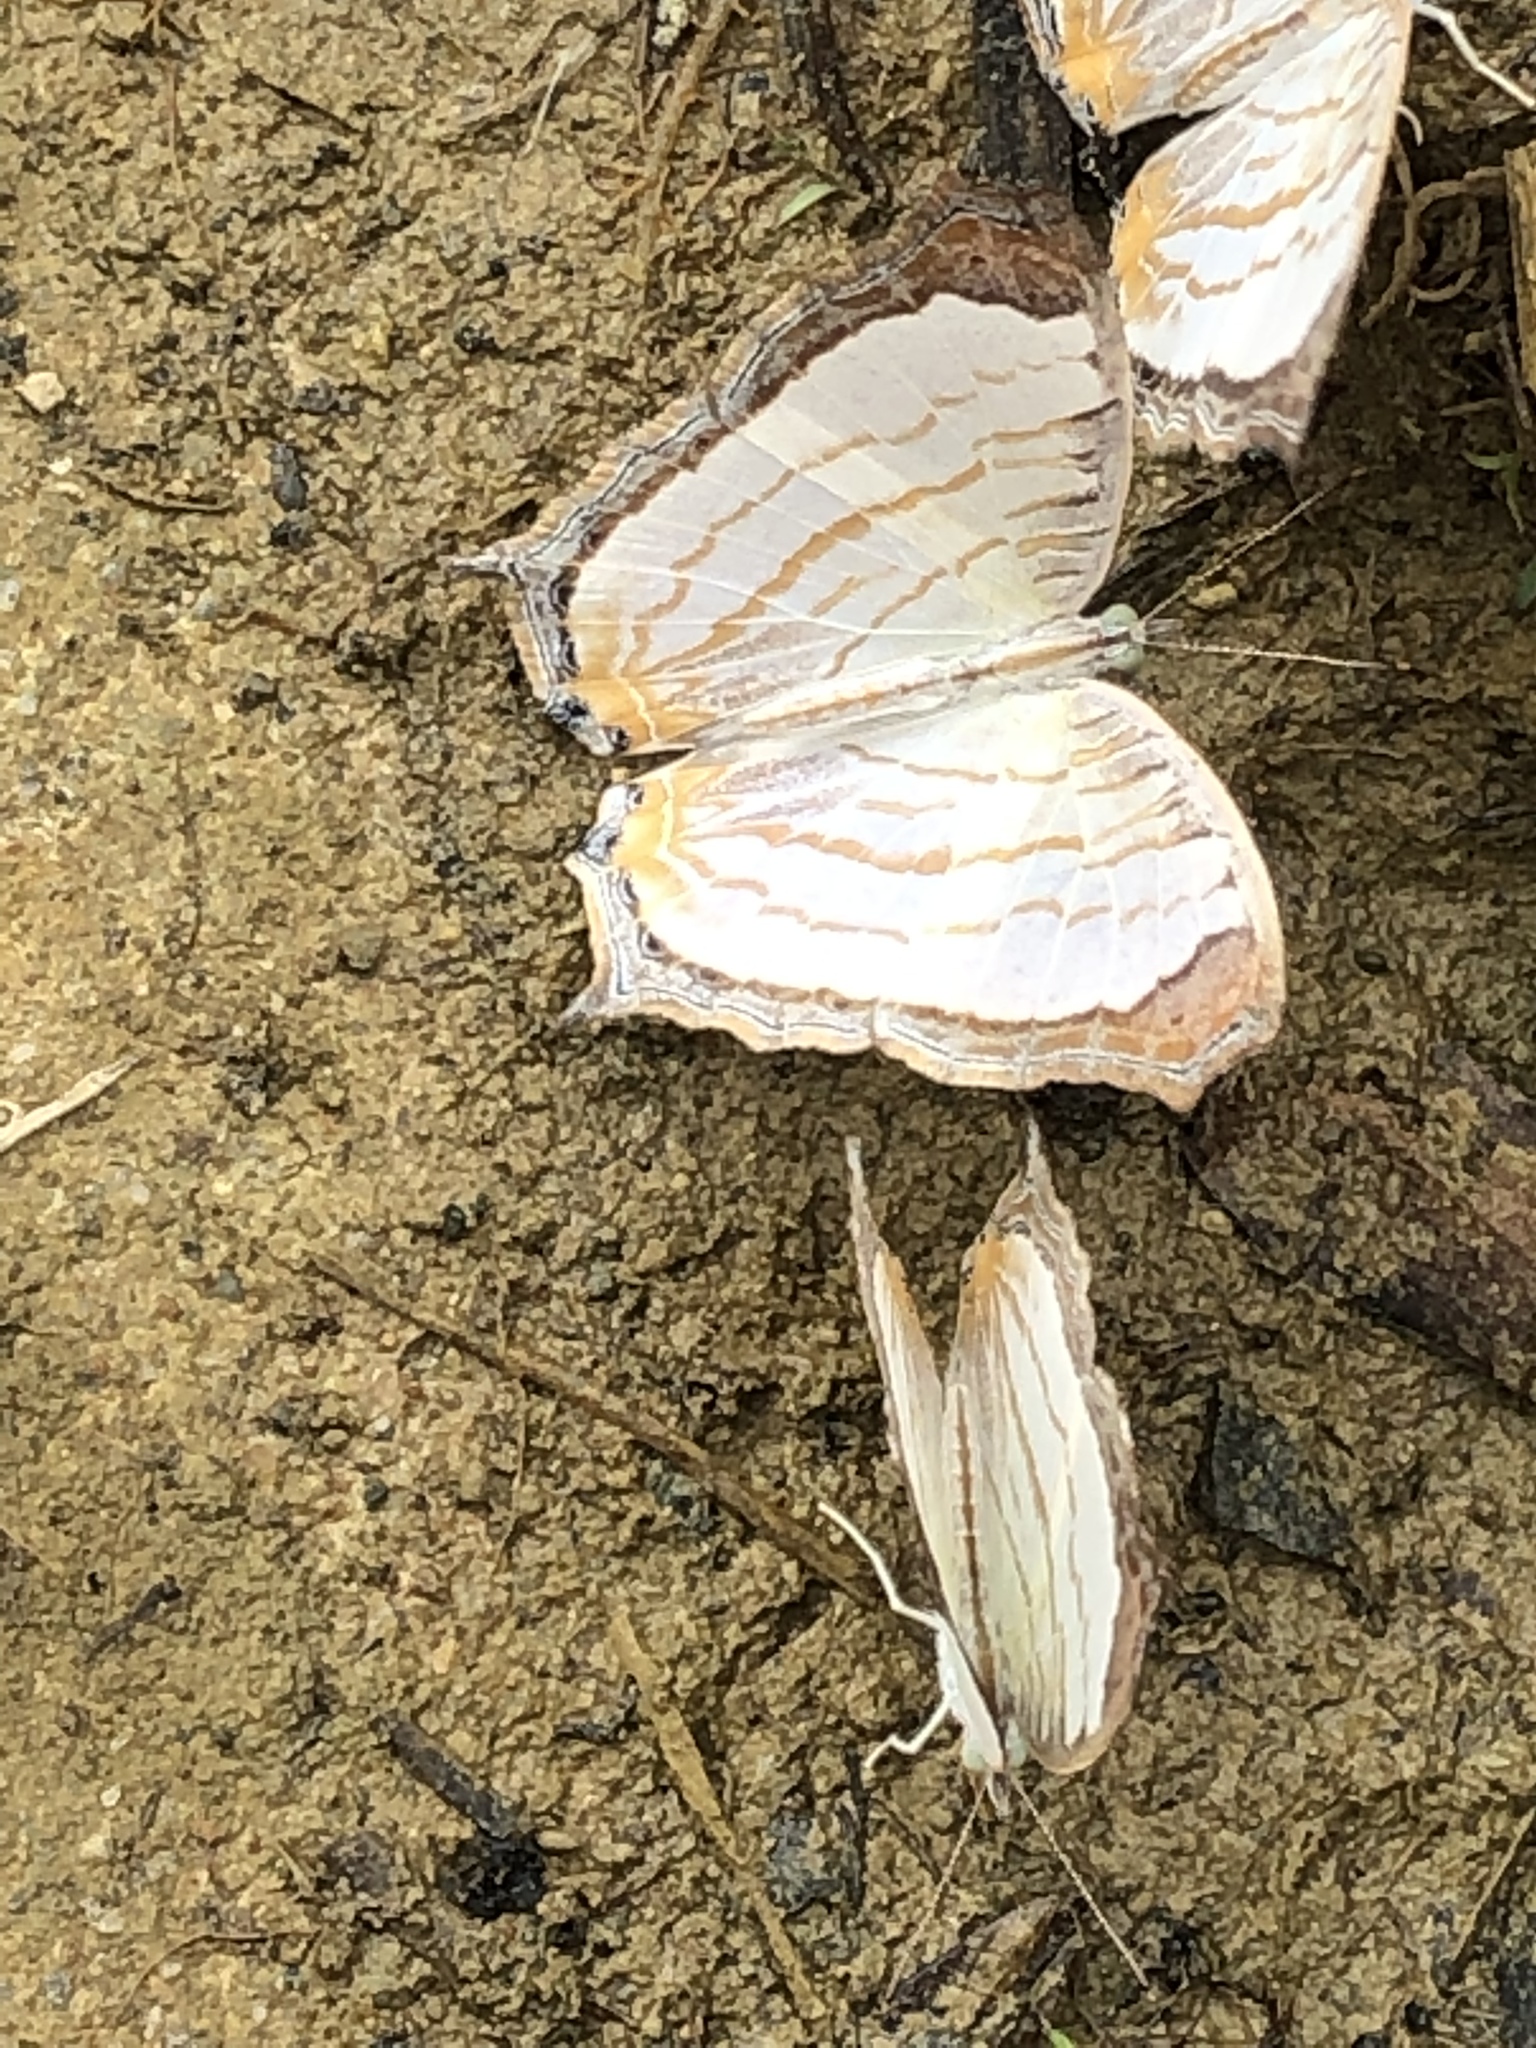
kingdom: Animalia
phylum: Arthropoda
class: Insecta
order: Lepidoptera
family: Nymphalidae
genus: Cyrestis
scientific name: Cyrestis cocles
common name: Marbled map
